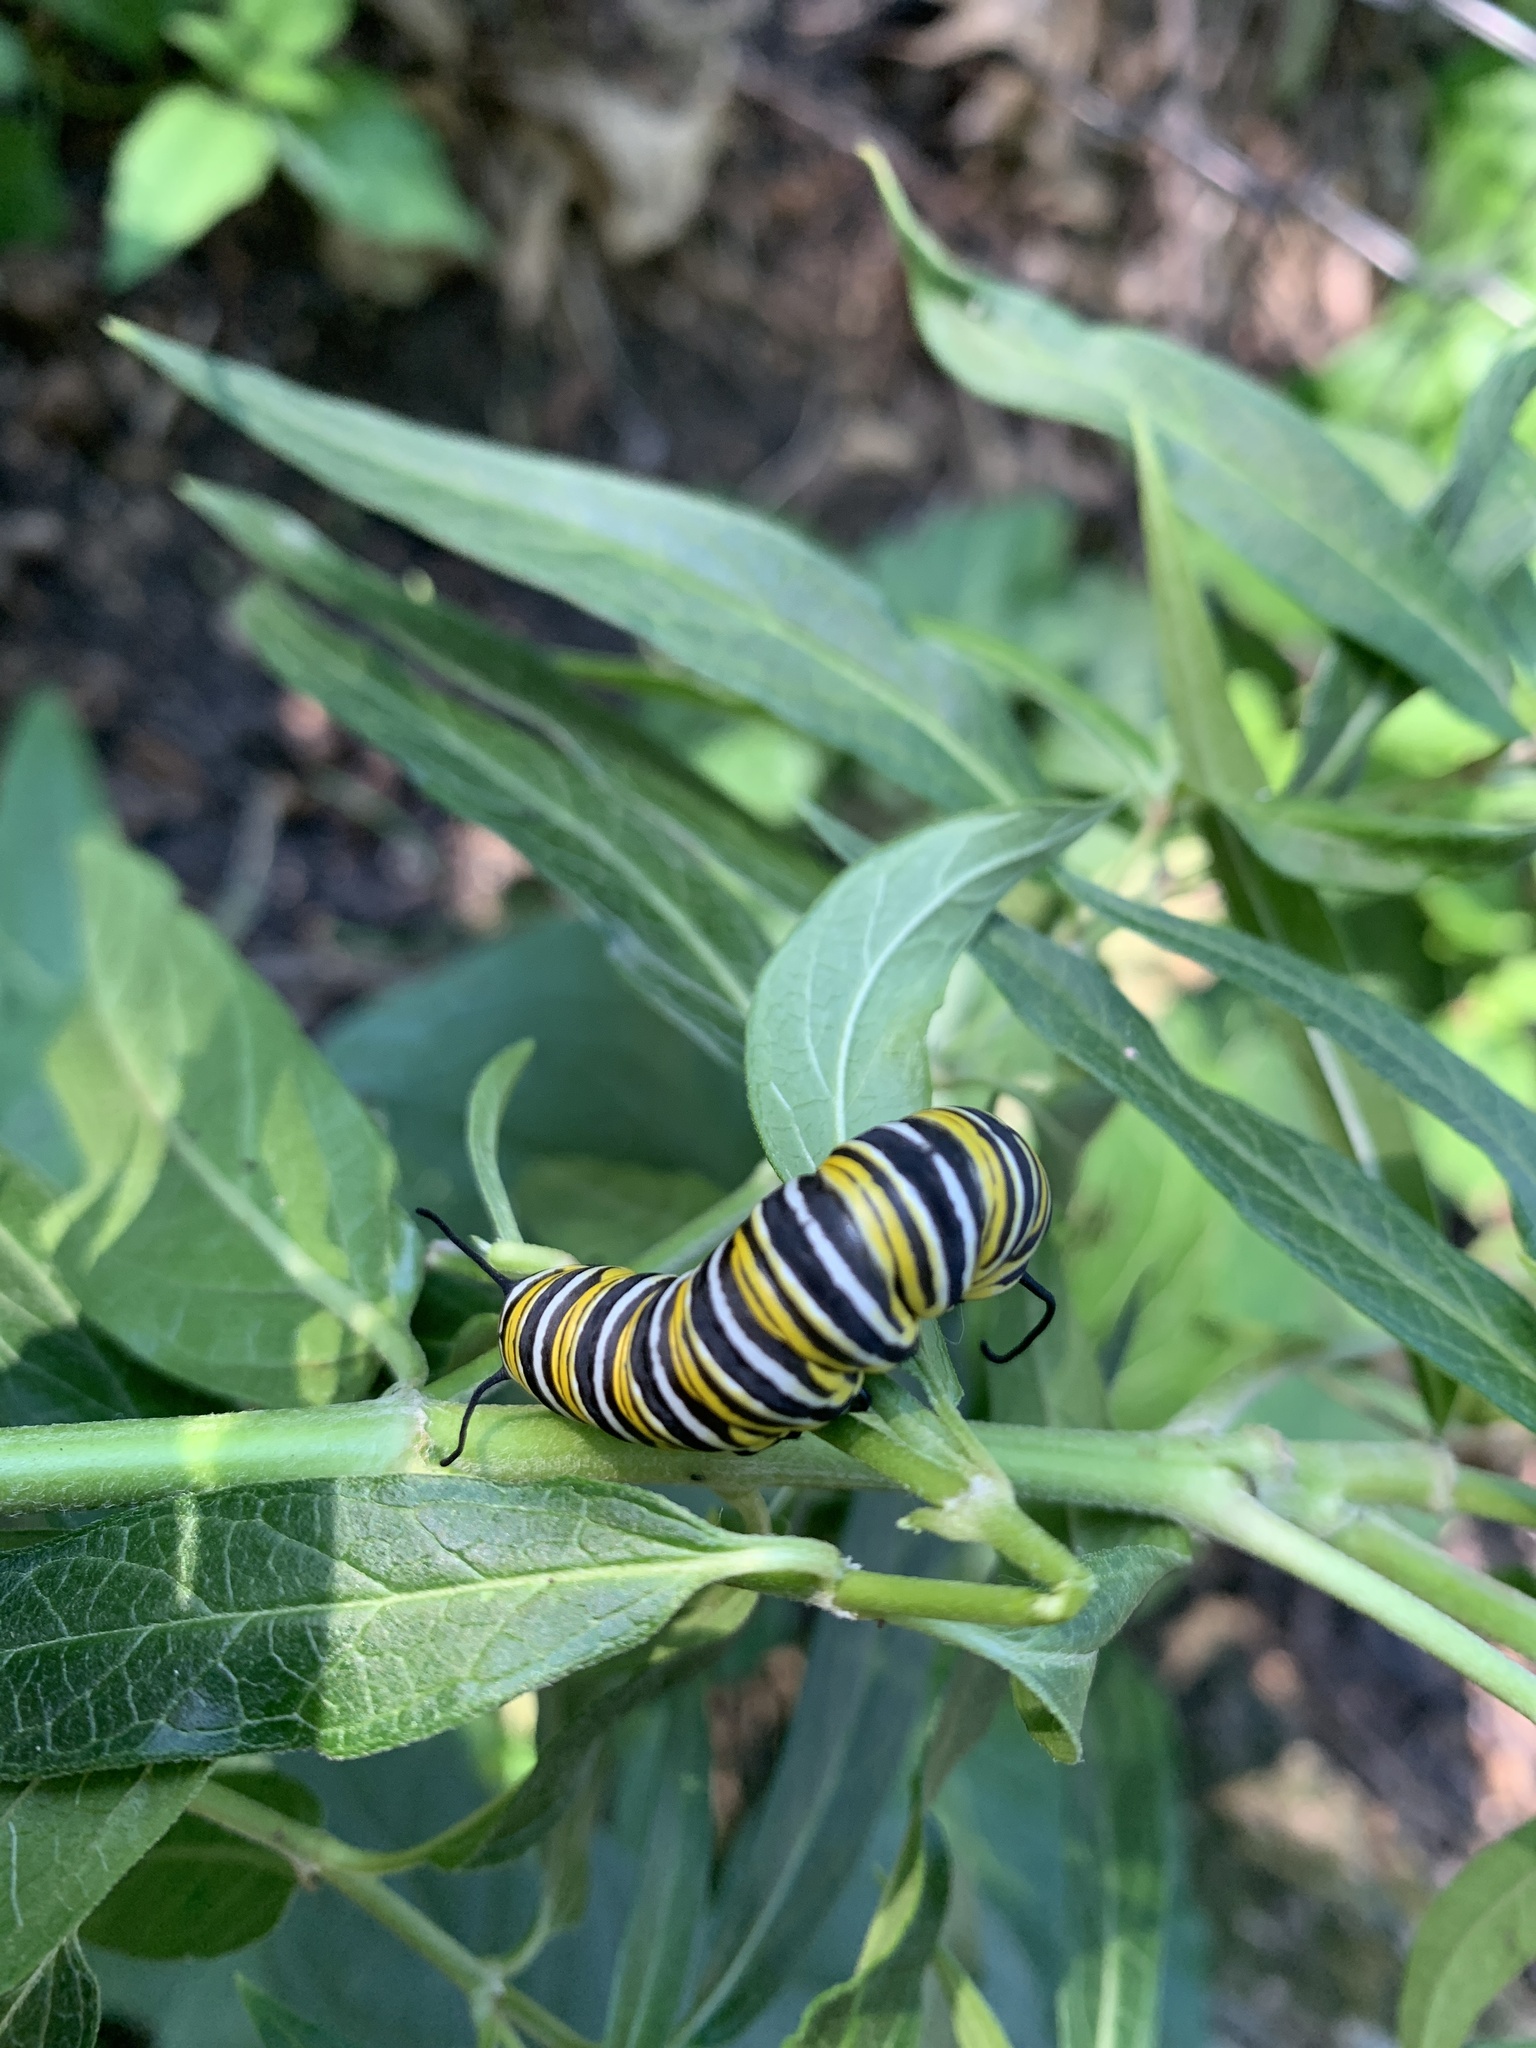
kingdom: Animalia
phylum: Arthropoda
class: Insecta
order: Lepidoptera
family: Nymphalidae
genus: Danaus
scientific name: Danaus plexippus
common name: Monarch
